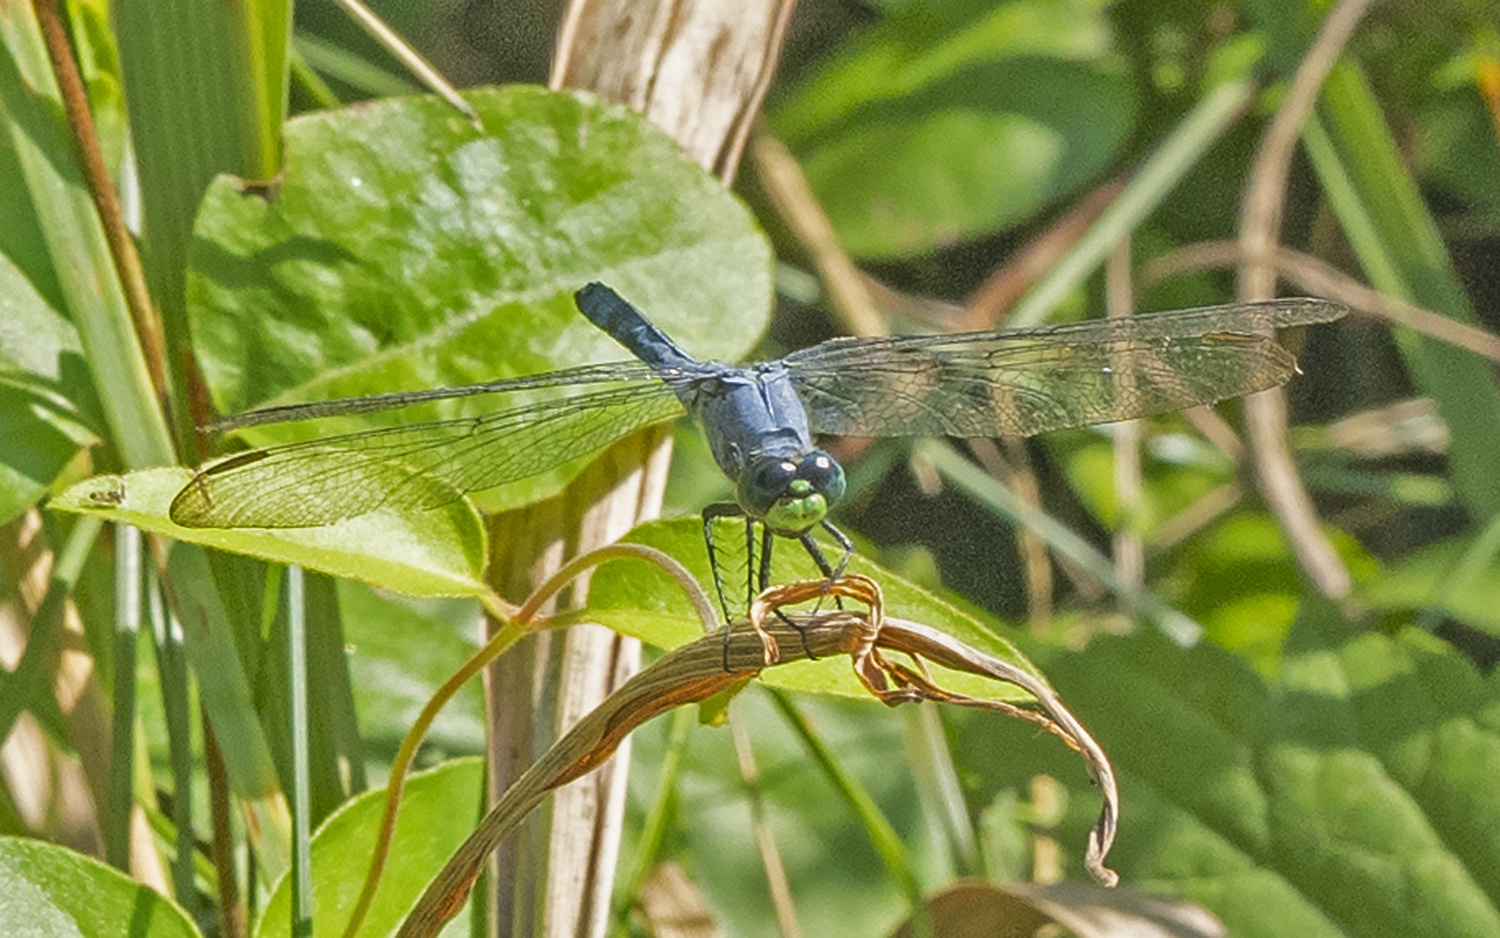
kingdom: Animalia
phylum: Arthropoda
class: Insecta
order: Odonata
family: Libellulidae
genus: Erythemis
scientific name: Erythemis simplicicollis
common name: Eastern pondhawk
